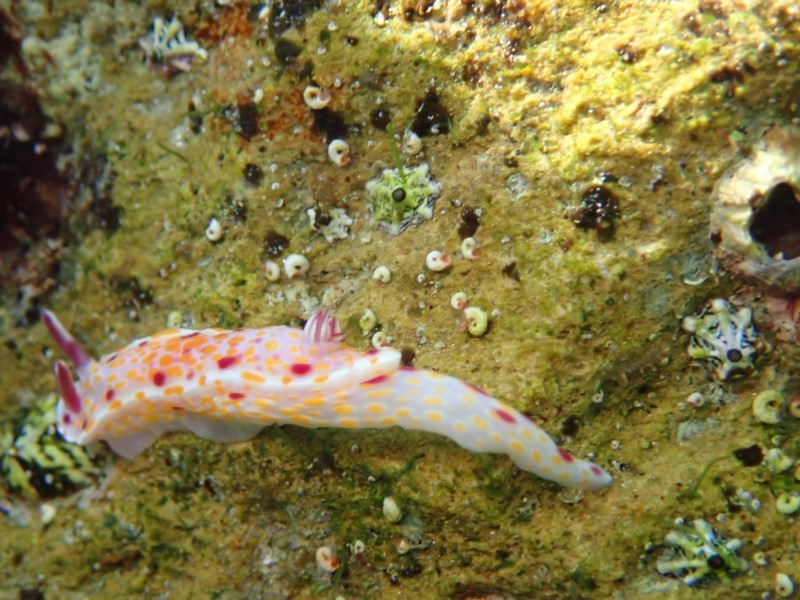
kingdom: Animalia
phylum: Mollusca
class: Gastropoda
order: Nudibranchia
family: Chromodorididae
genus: Ceratosoma
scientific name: Ceratosoma amoenum
